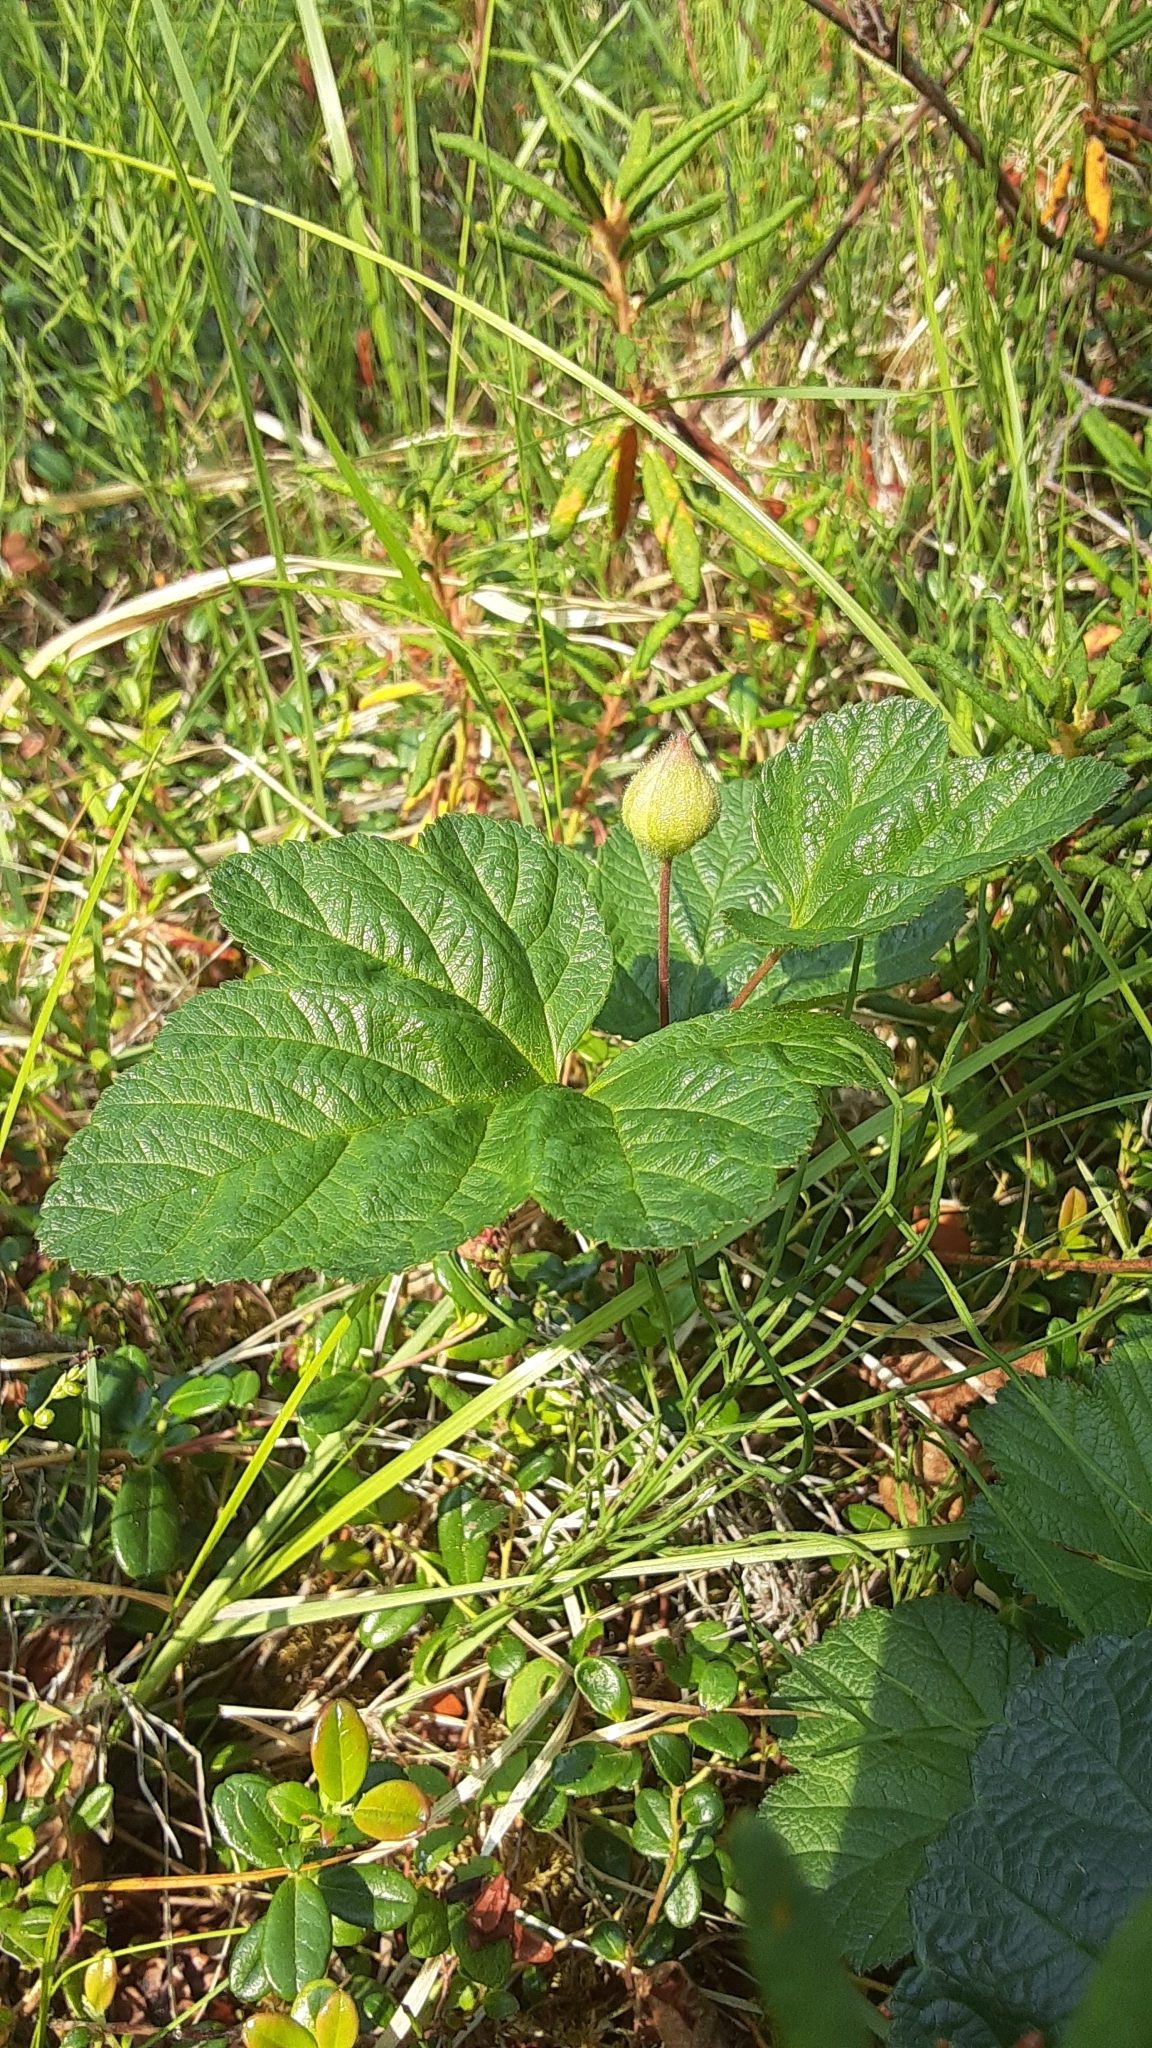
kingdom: Plantae
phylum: Tracheophyta
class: Magnoliopsida
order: Rosales
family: Rosaceae
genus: Rubus
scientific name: Rubus chamaemorus
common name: Cloudberry
